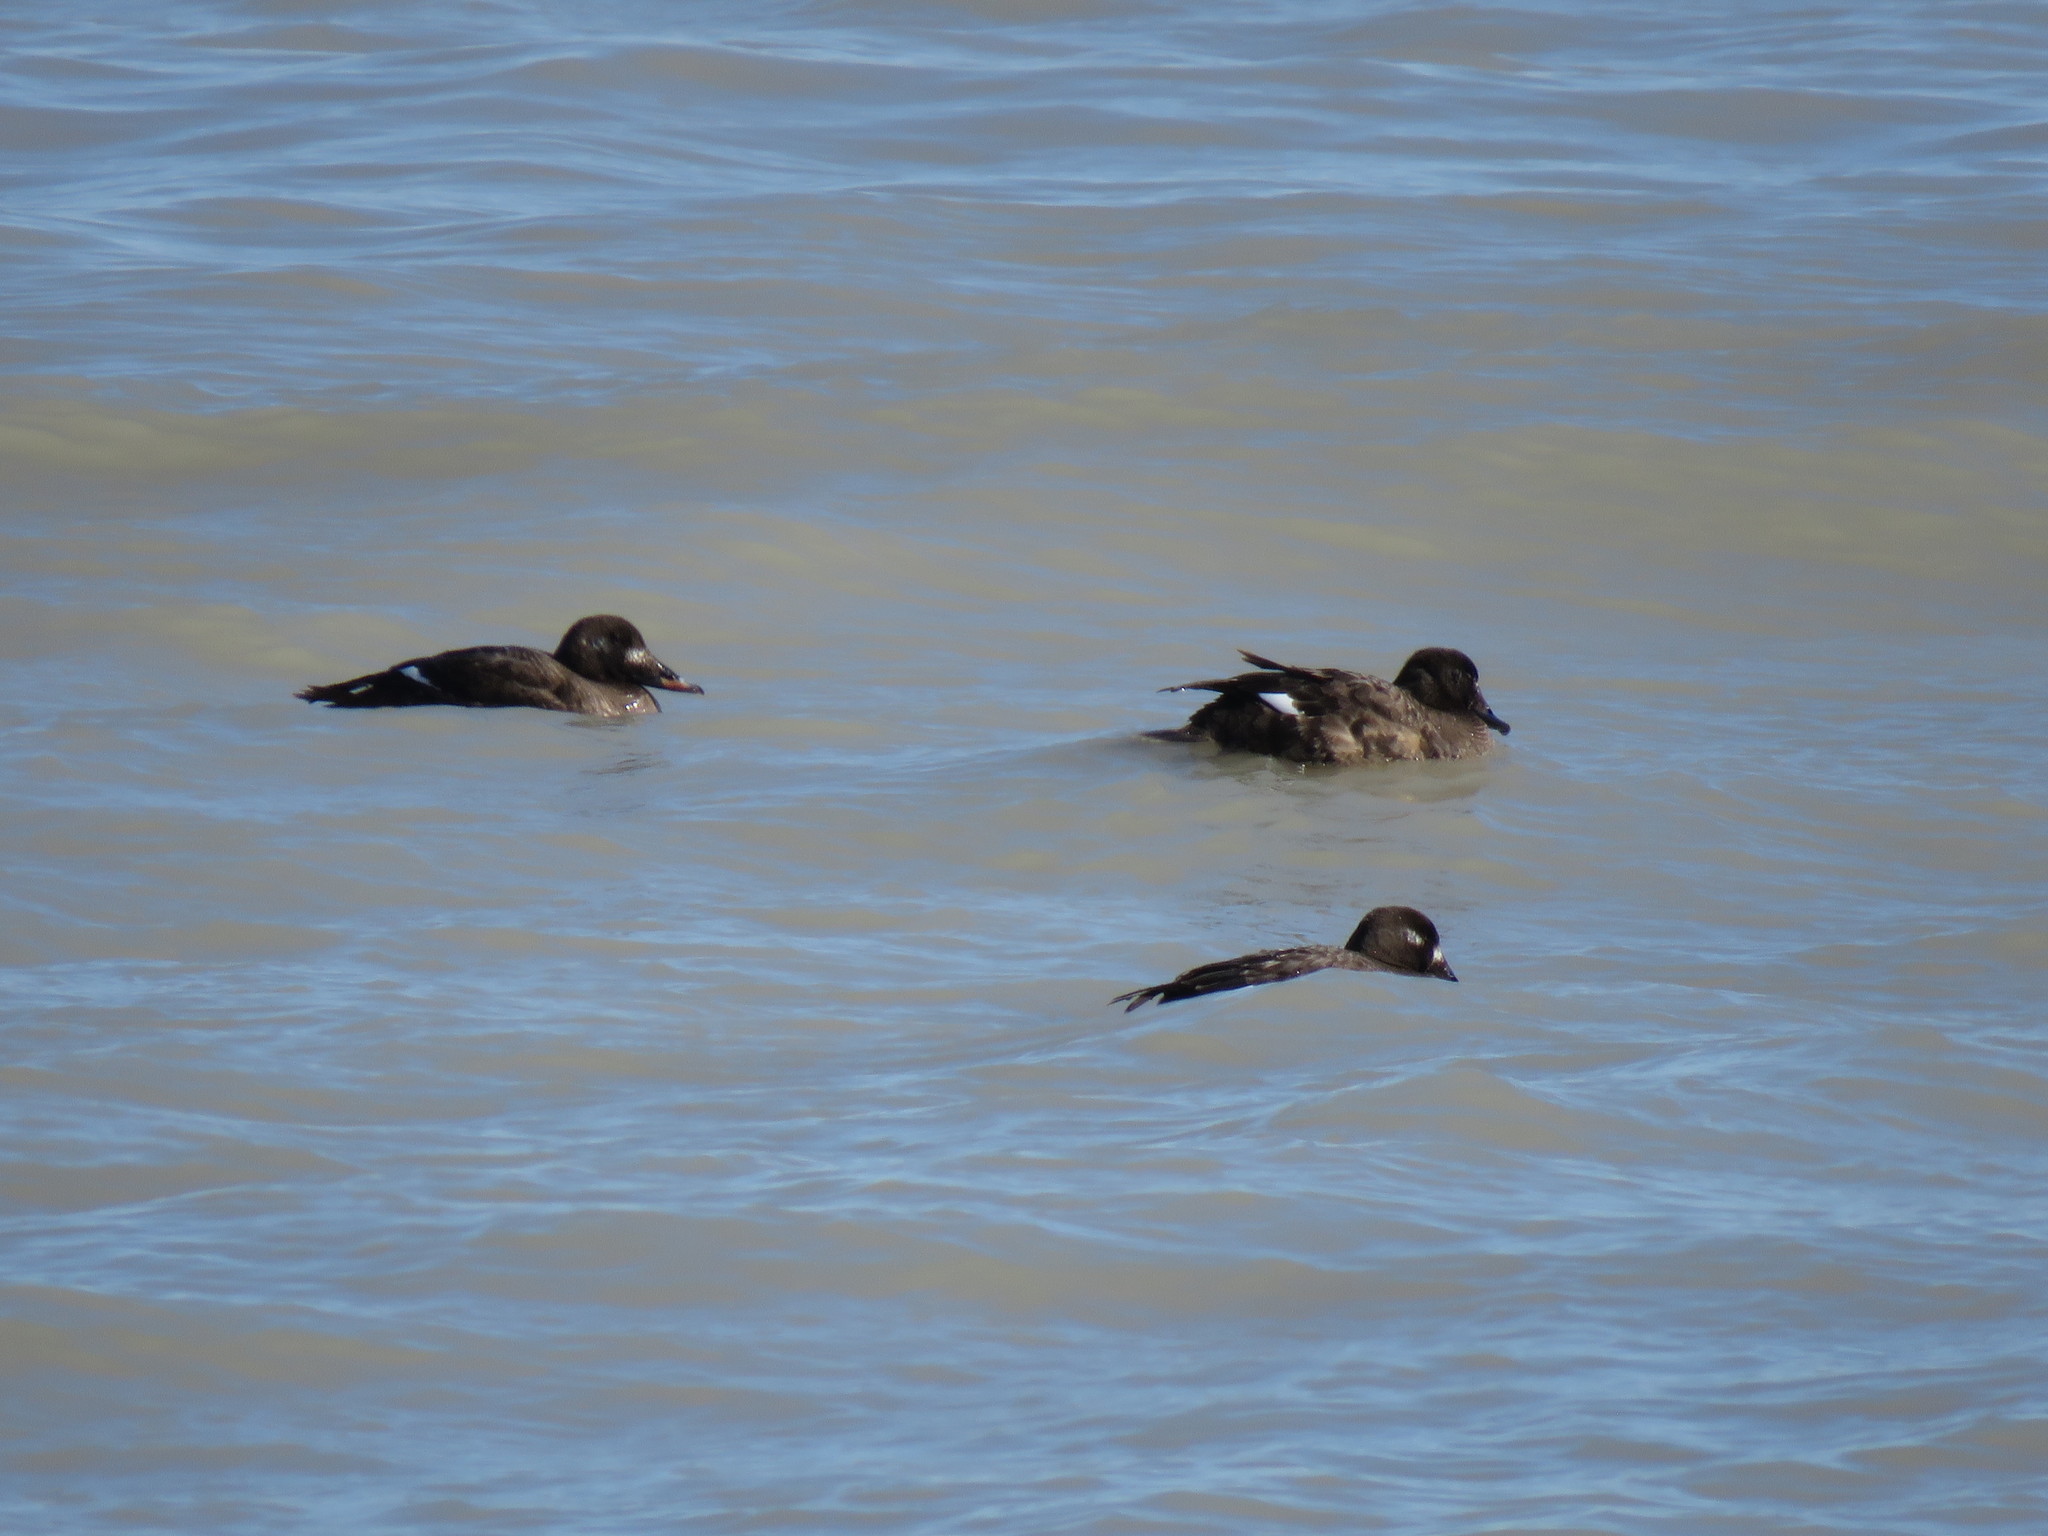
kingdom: Animalia
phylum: Chordata
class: Aves
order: Anseriformes
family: Anatidae
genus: Melanitta
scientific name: Melanitta deglandi
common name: White-winged scoter
